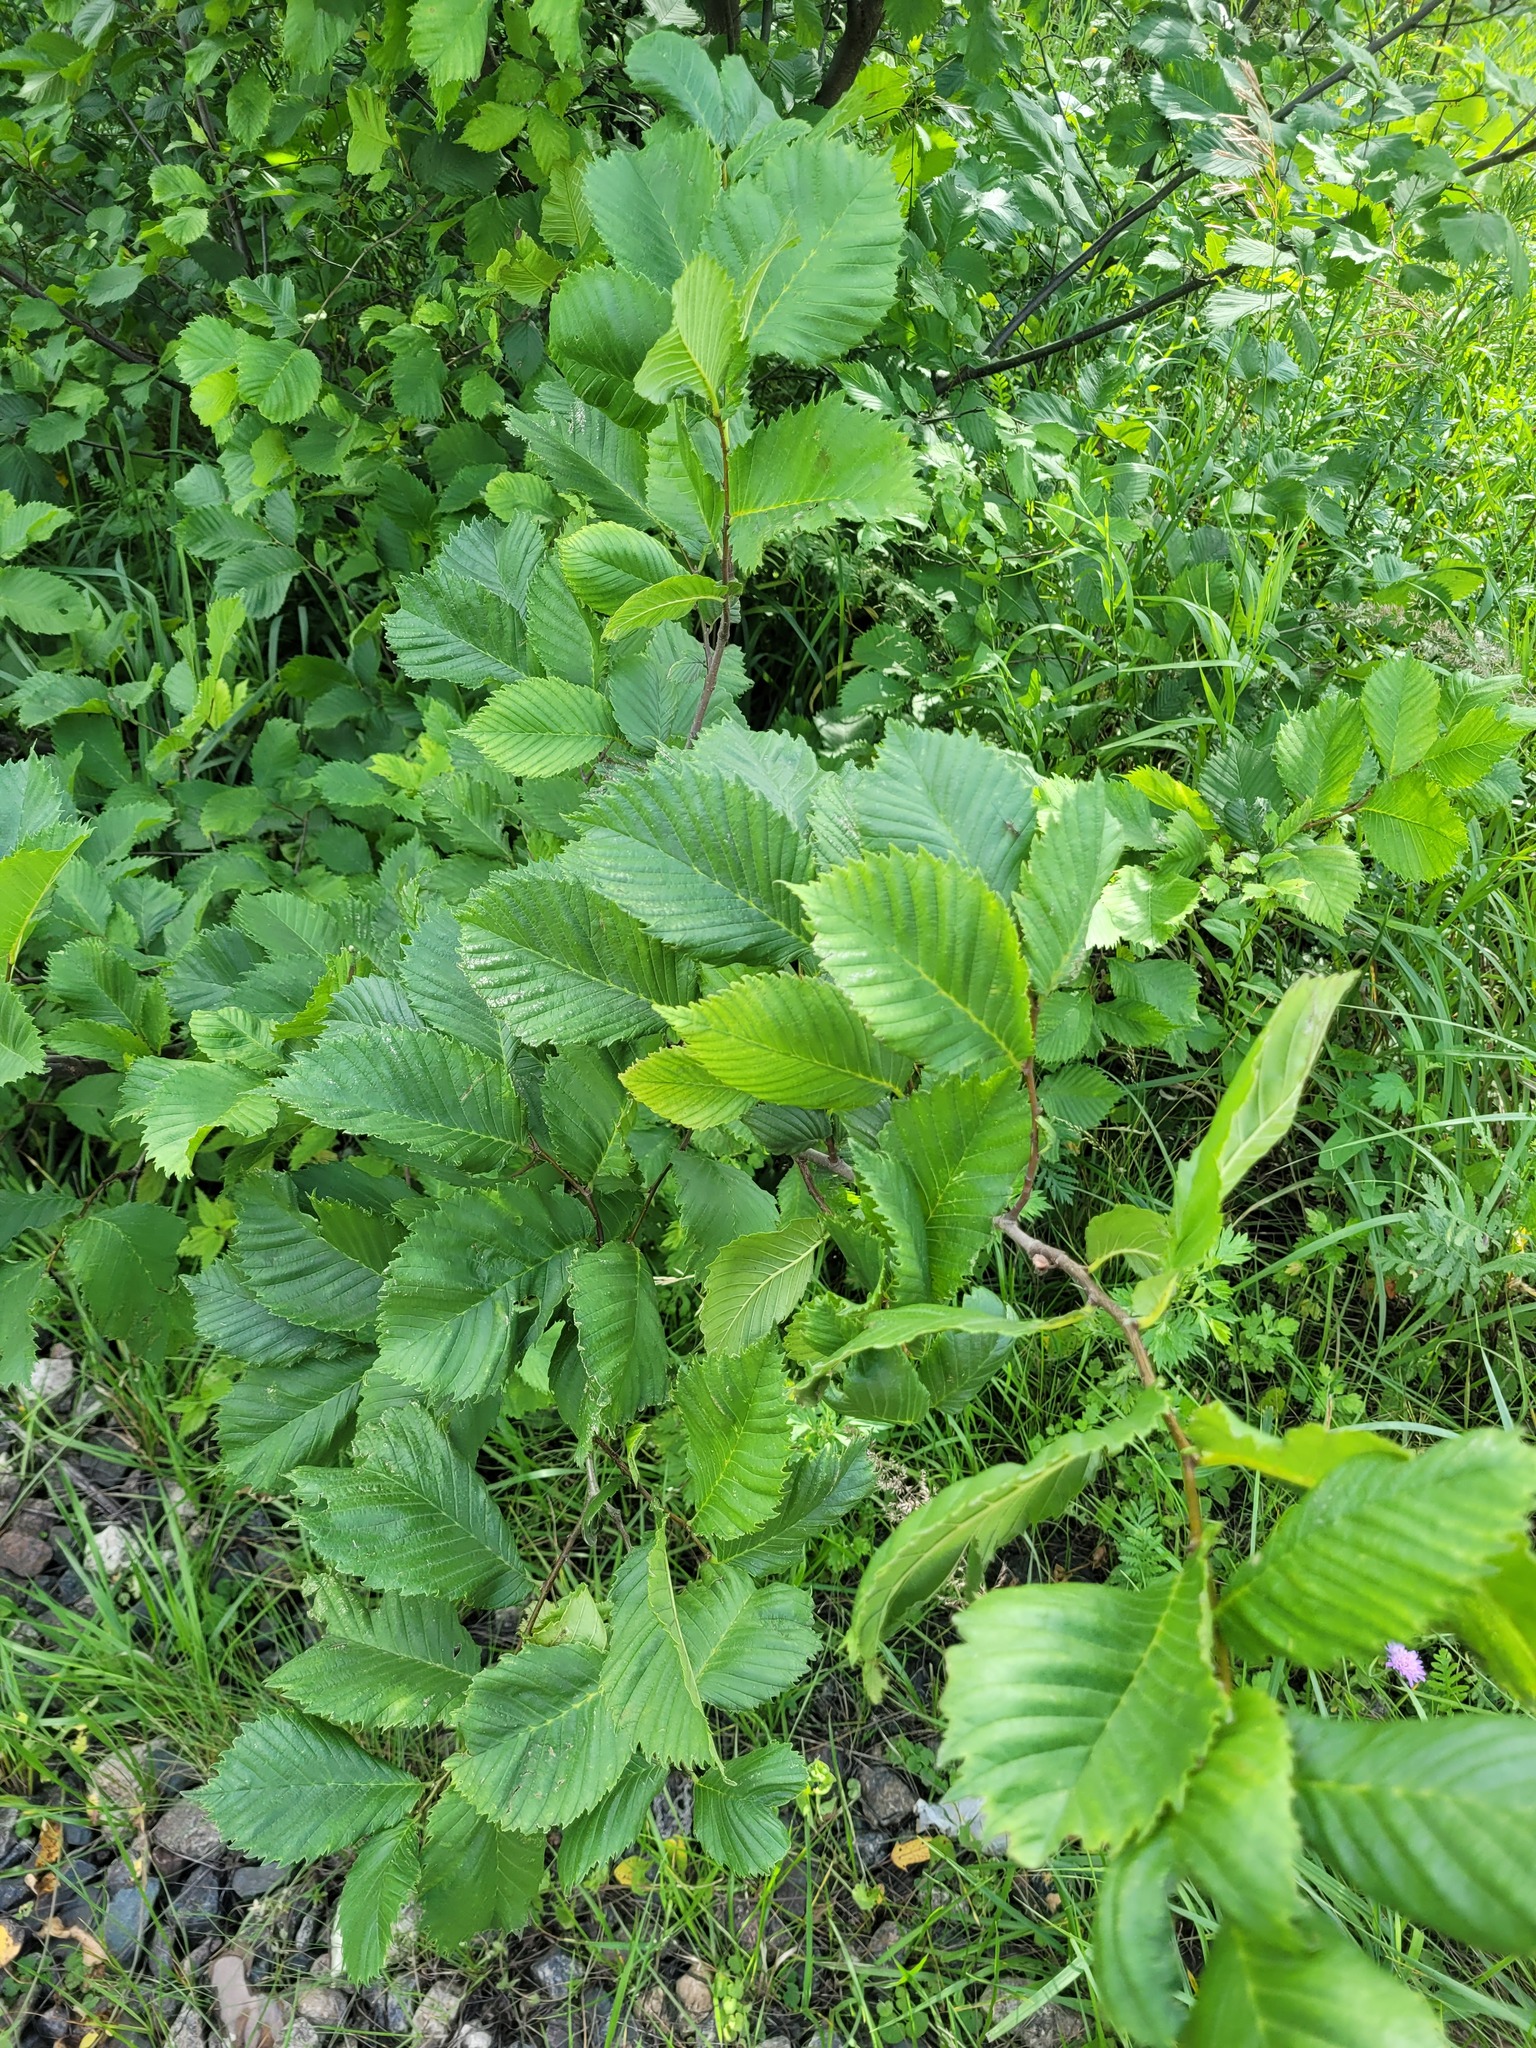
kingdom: Plantae
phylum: Tracheophyta
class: Magnoliopsida
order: Rosales
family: Ulmaceae
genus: Ulmus
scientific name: Ulmus laevis
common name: European white-elm
